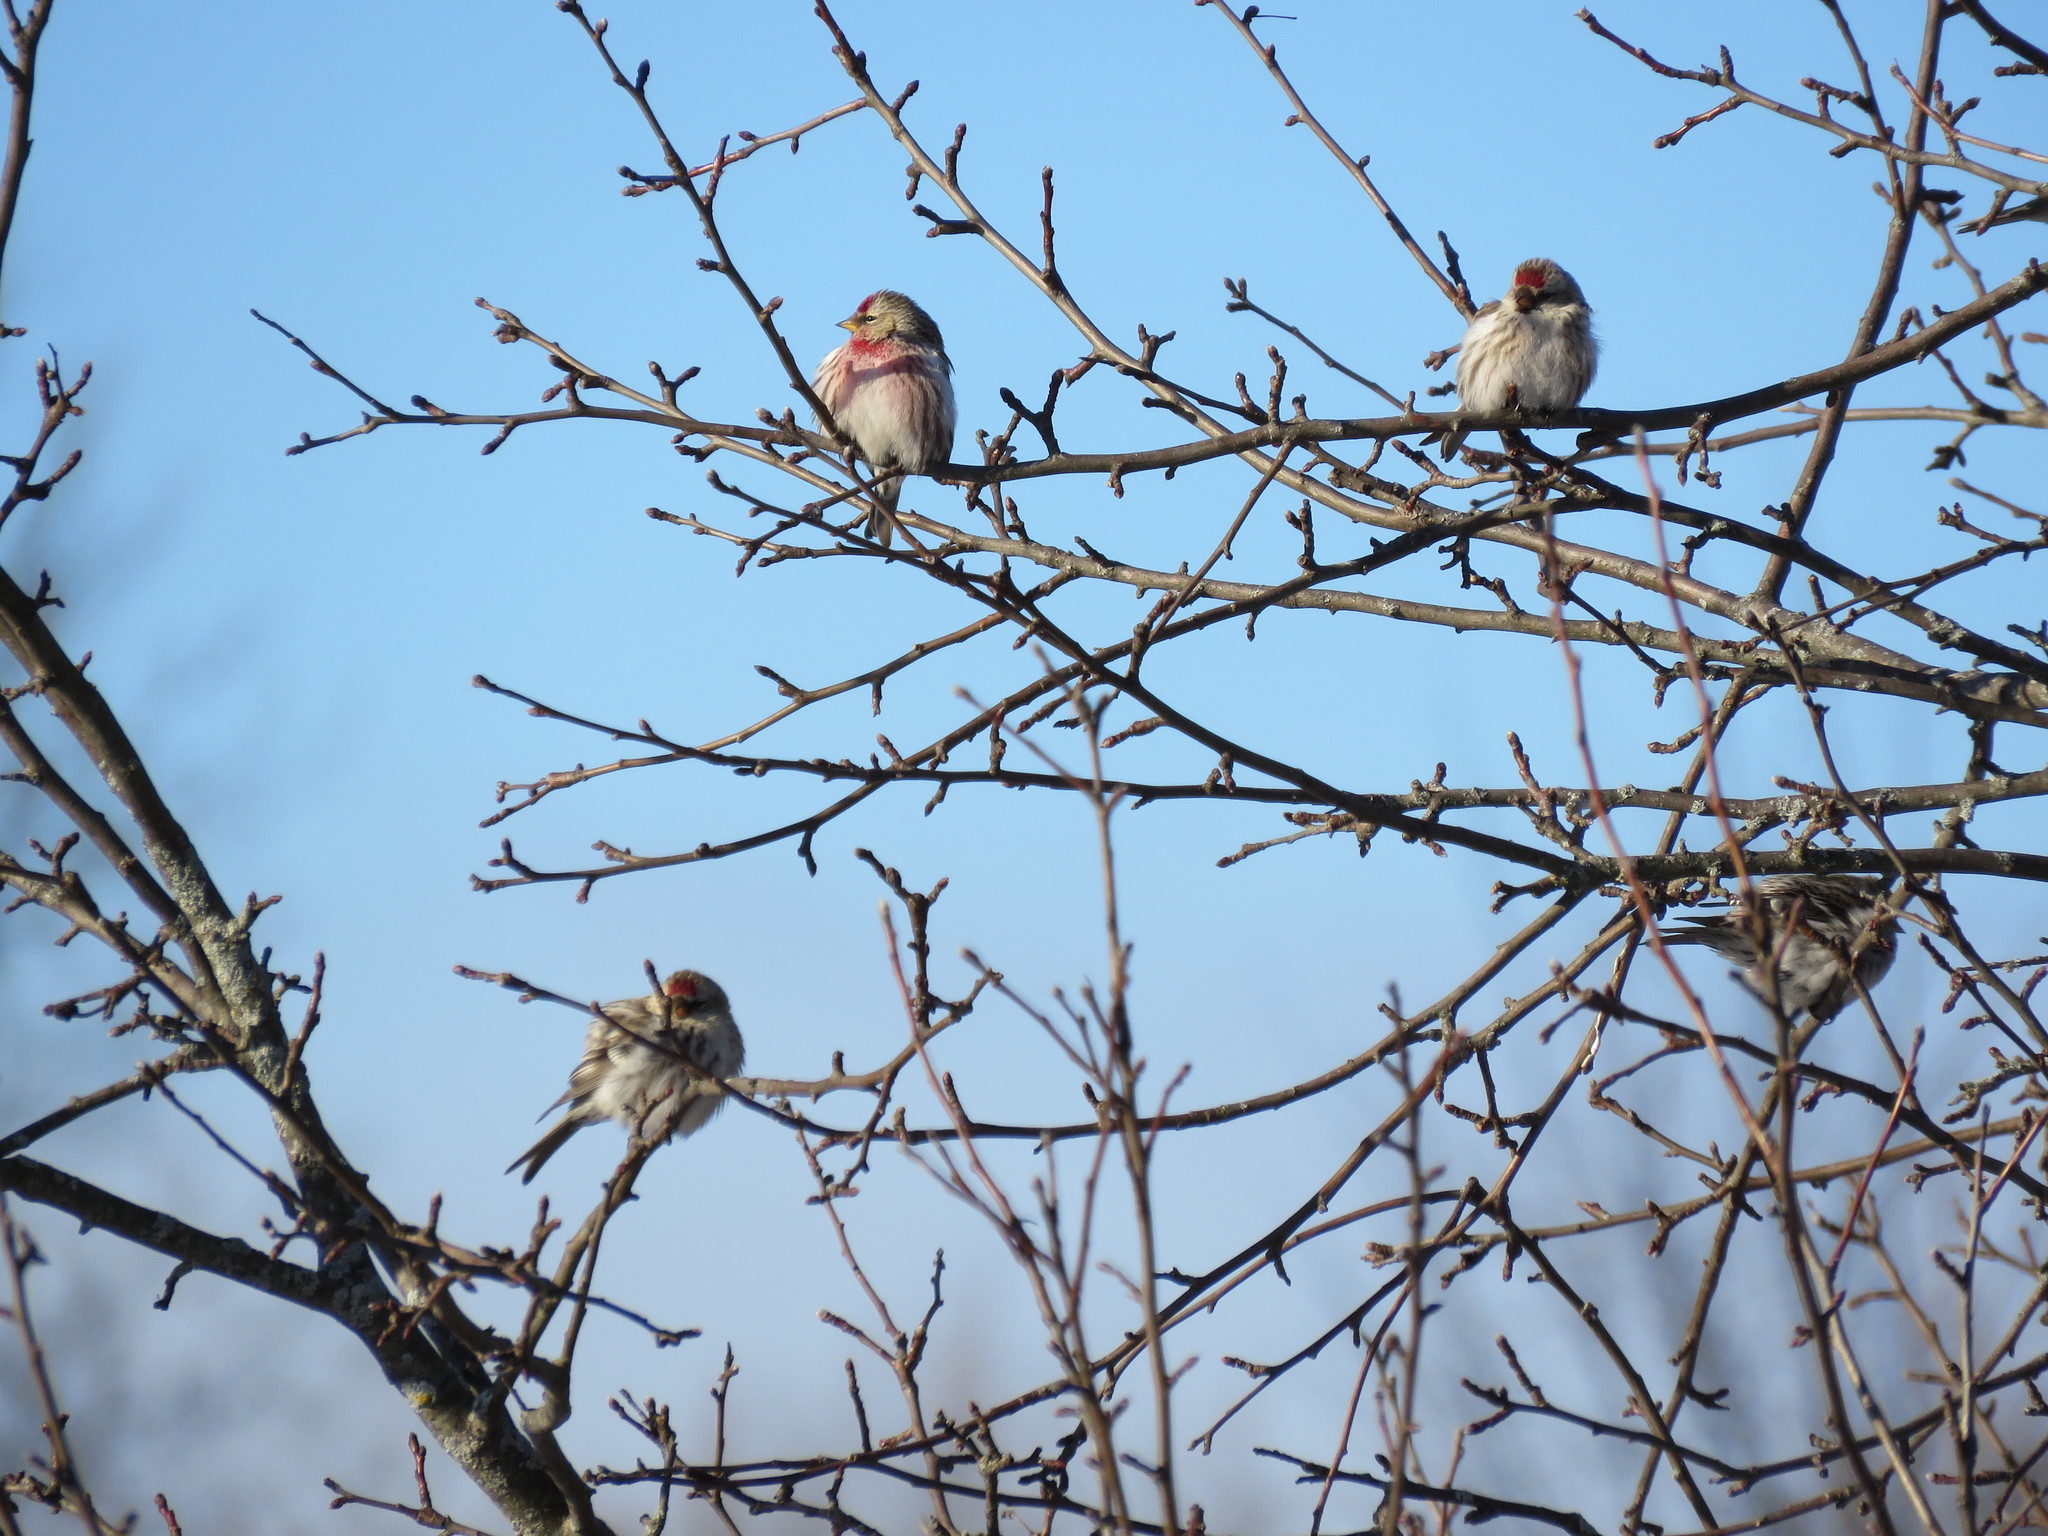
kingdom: Animalia
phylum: Chordata
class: Aves
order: Passeriformes
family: Fringillidae
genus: Acanthis
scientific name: Acanthis flammea
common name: Common redpoll
